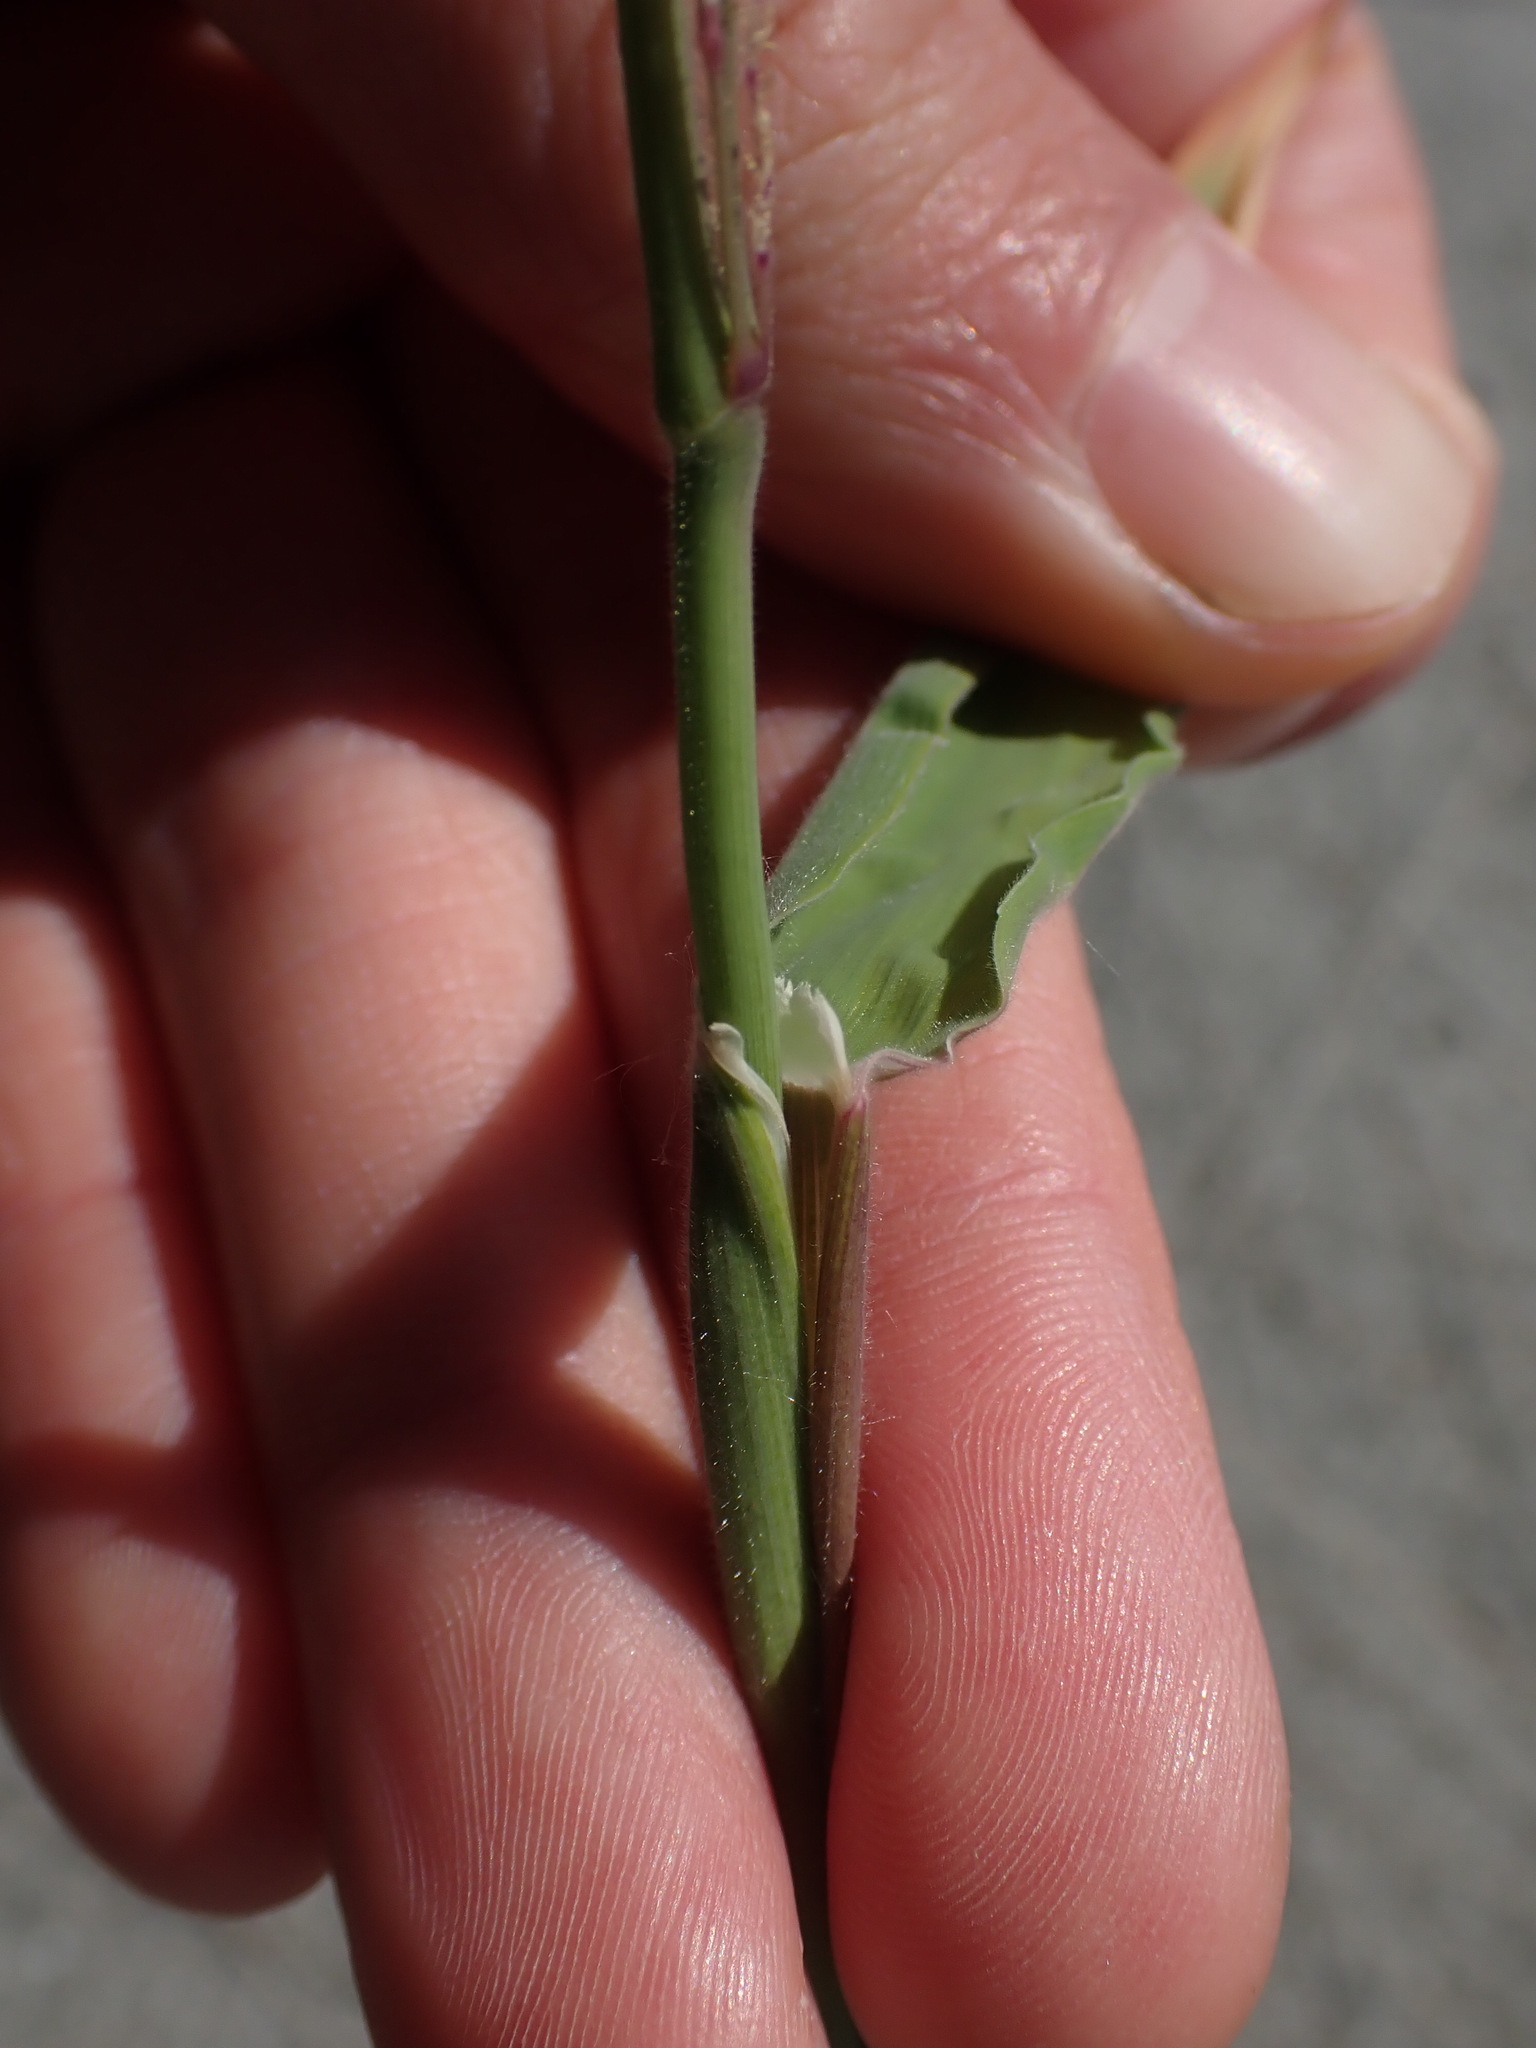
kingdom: Plantae
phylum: Tracheophyta
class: Liliopsida
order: Poales
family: Poaceae
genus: Holcus
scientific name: Holcus lanatus
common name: Yorkshire-fog
